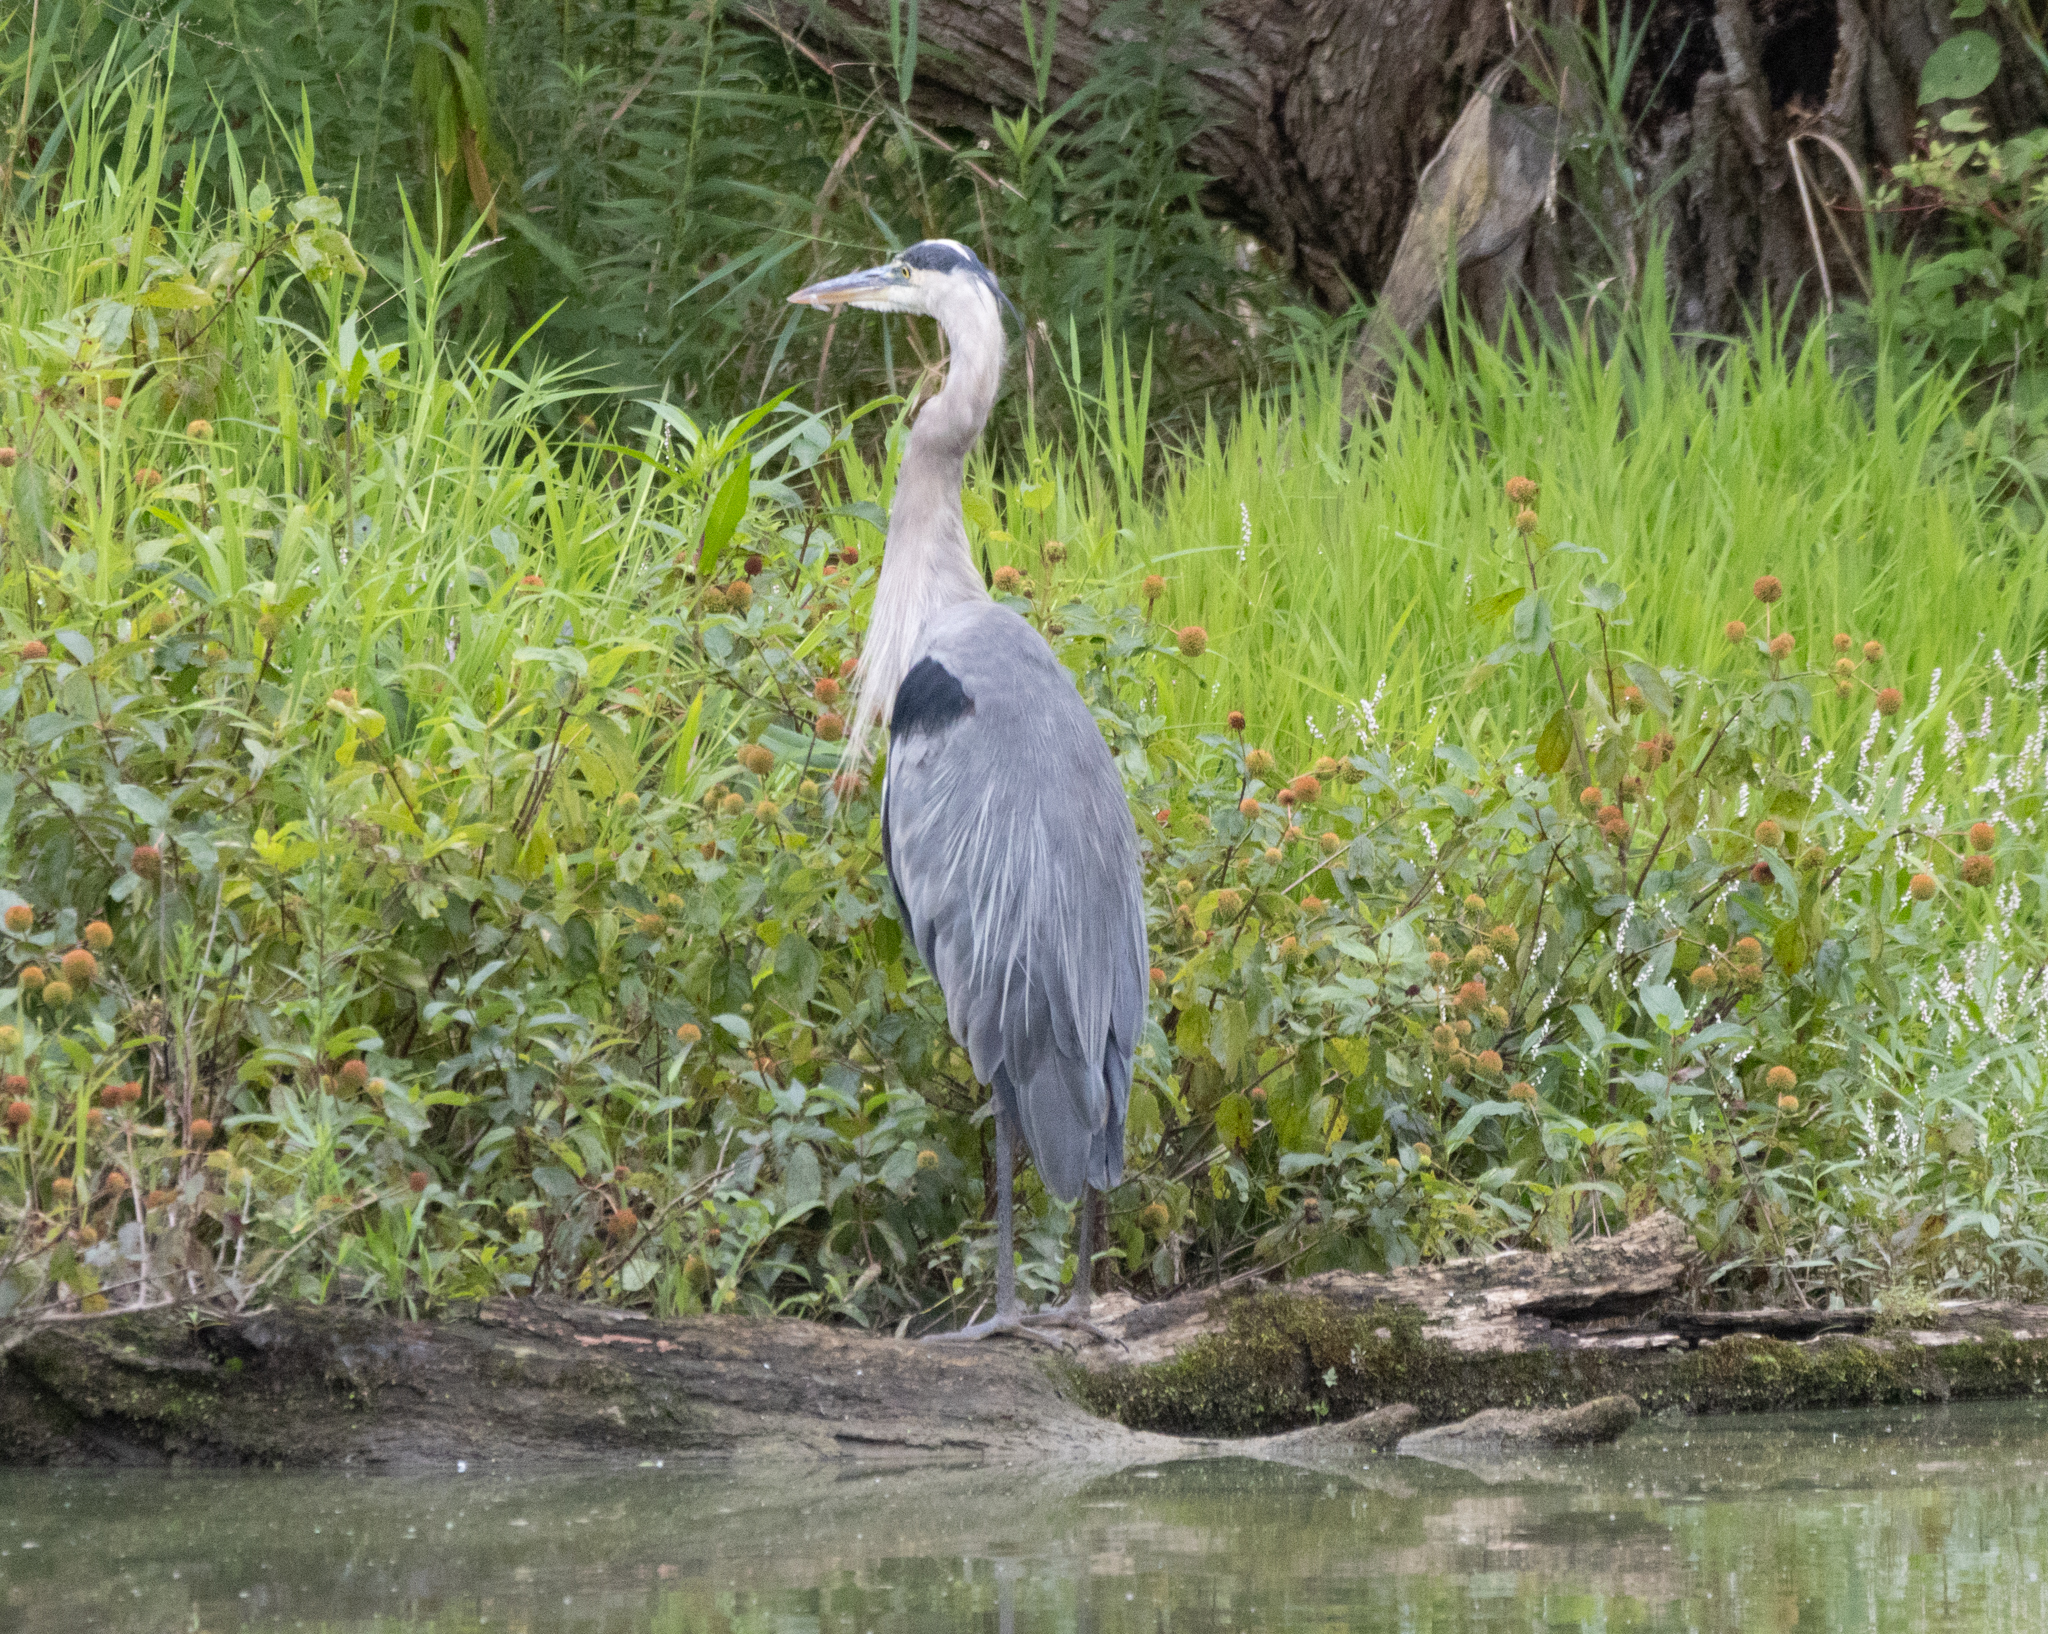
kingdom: Animalia
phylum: Chordata
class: Aves
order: Pelecaniformes
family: Ardeidae
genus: Ardea
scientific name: Ardea herodias
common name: Great blue heron
